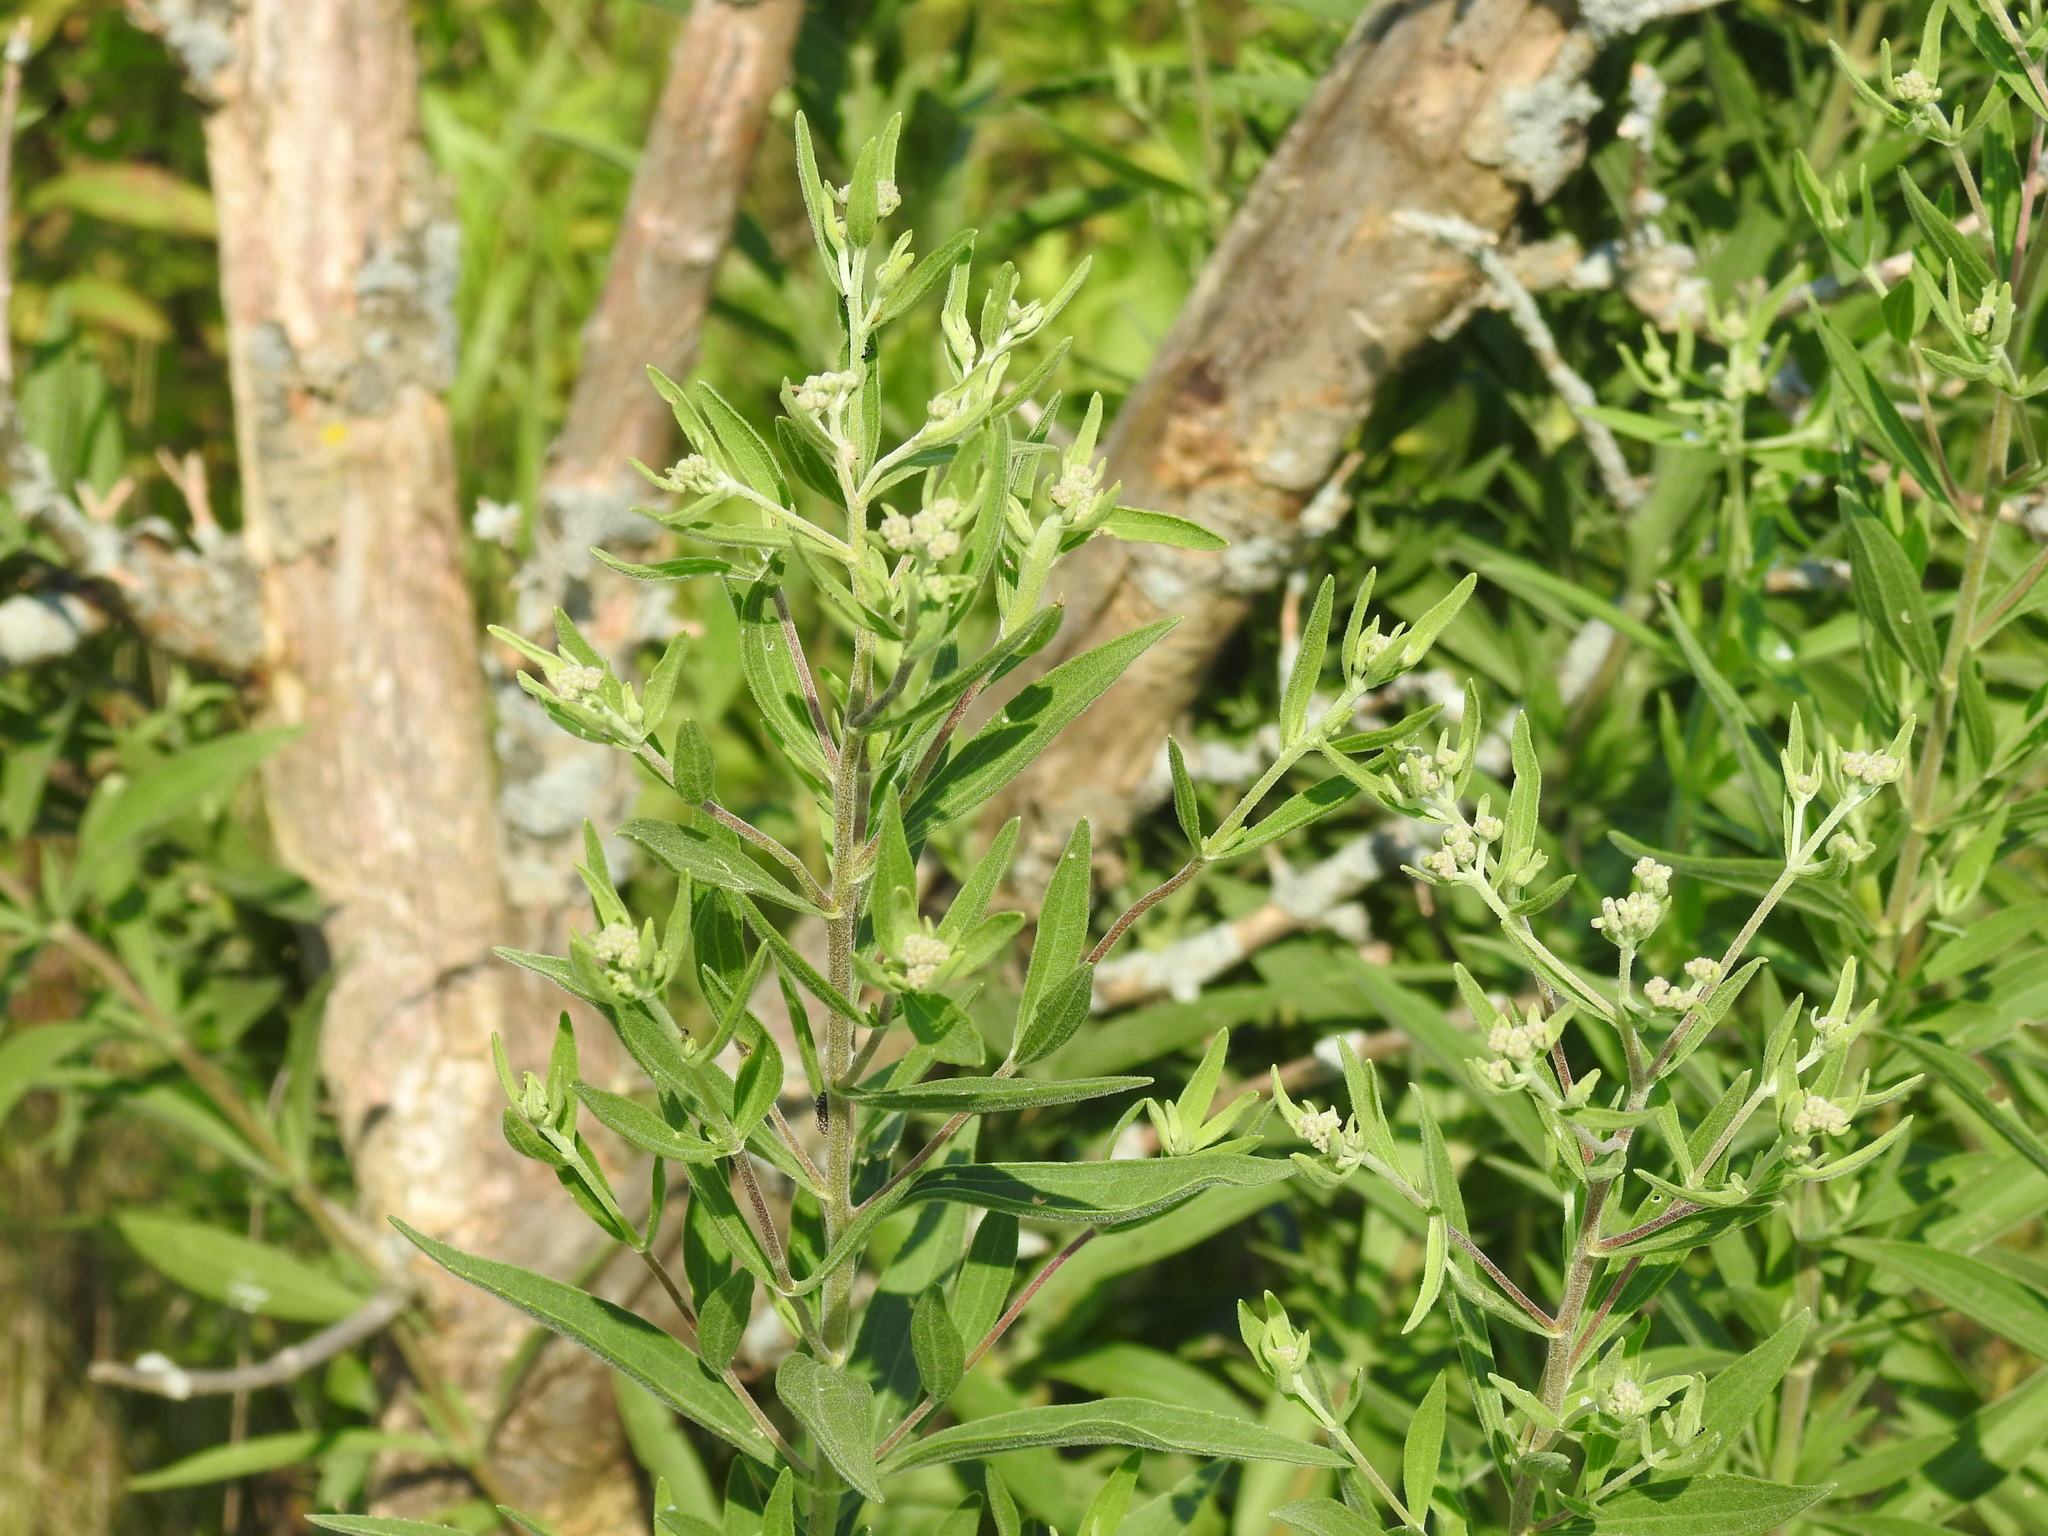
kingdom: Plantae
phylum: Tracheophyta
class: Magnoliopsida
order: Asterales
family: Asteraceae
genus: Eupatorium
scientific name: Eupatorium altissimum
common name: Tall thoroughwort
